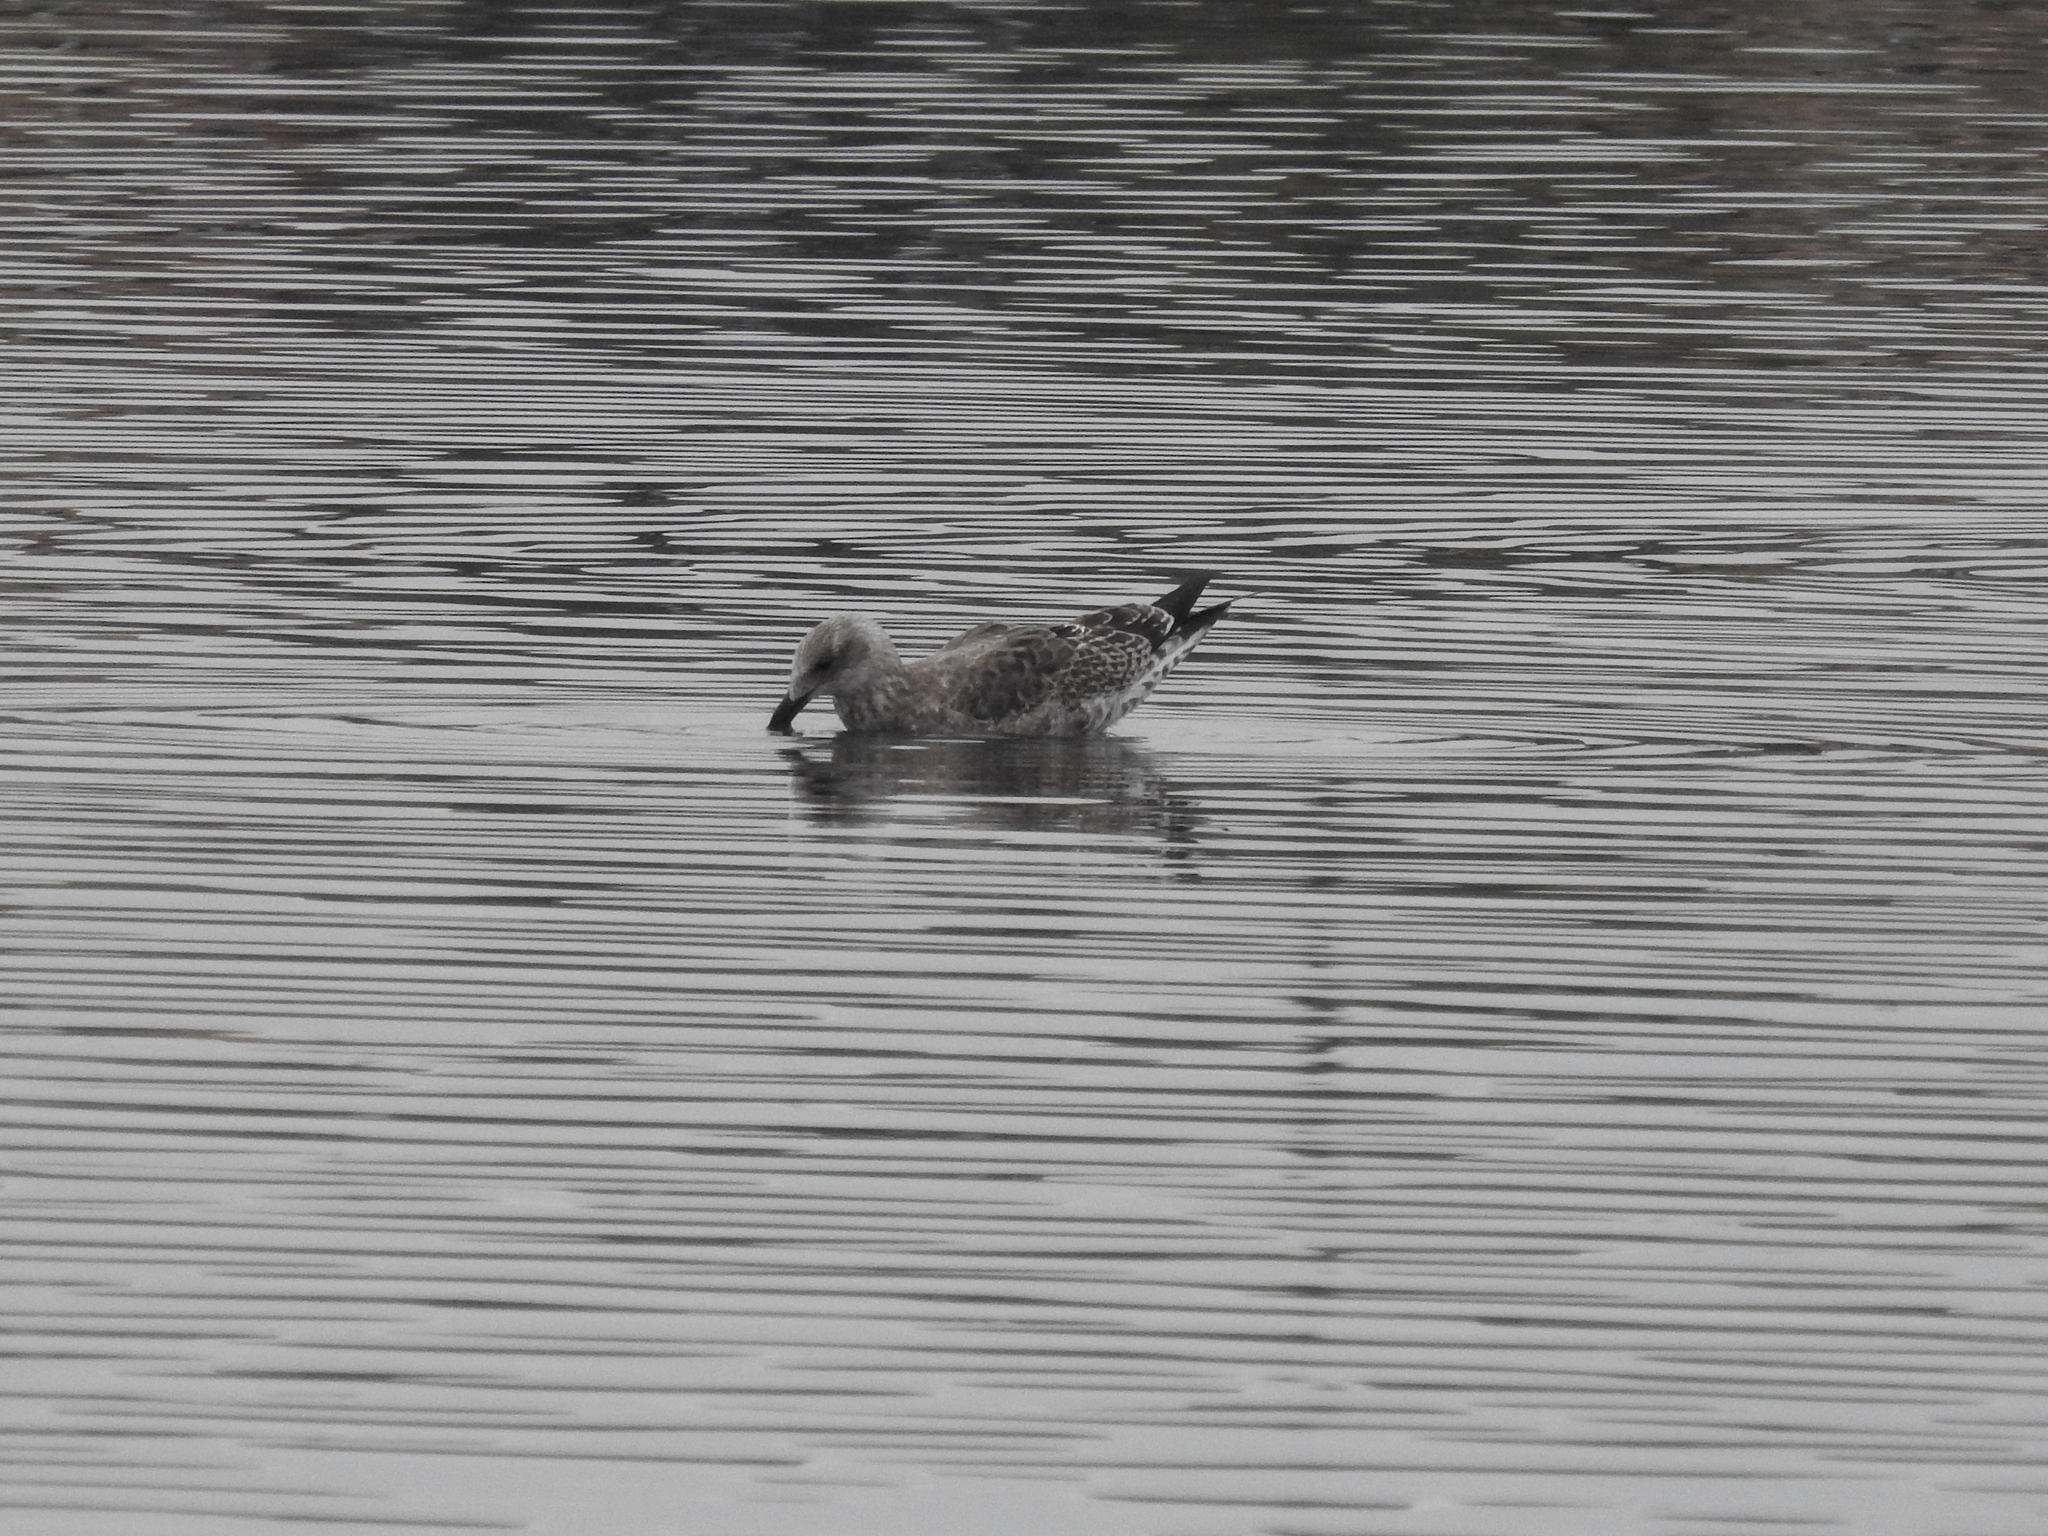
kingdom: Animalia
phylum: Chordata
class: Aves
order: Charadriiformes
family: Laridae
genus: Larus
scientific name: Larus dominicanus
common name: Kelp gull
